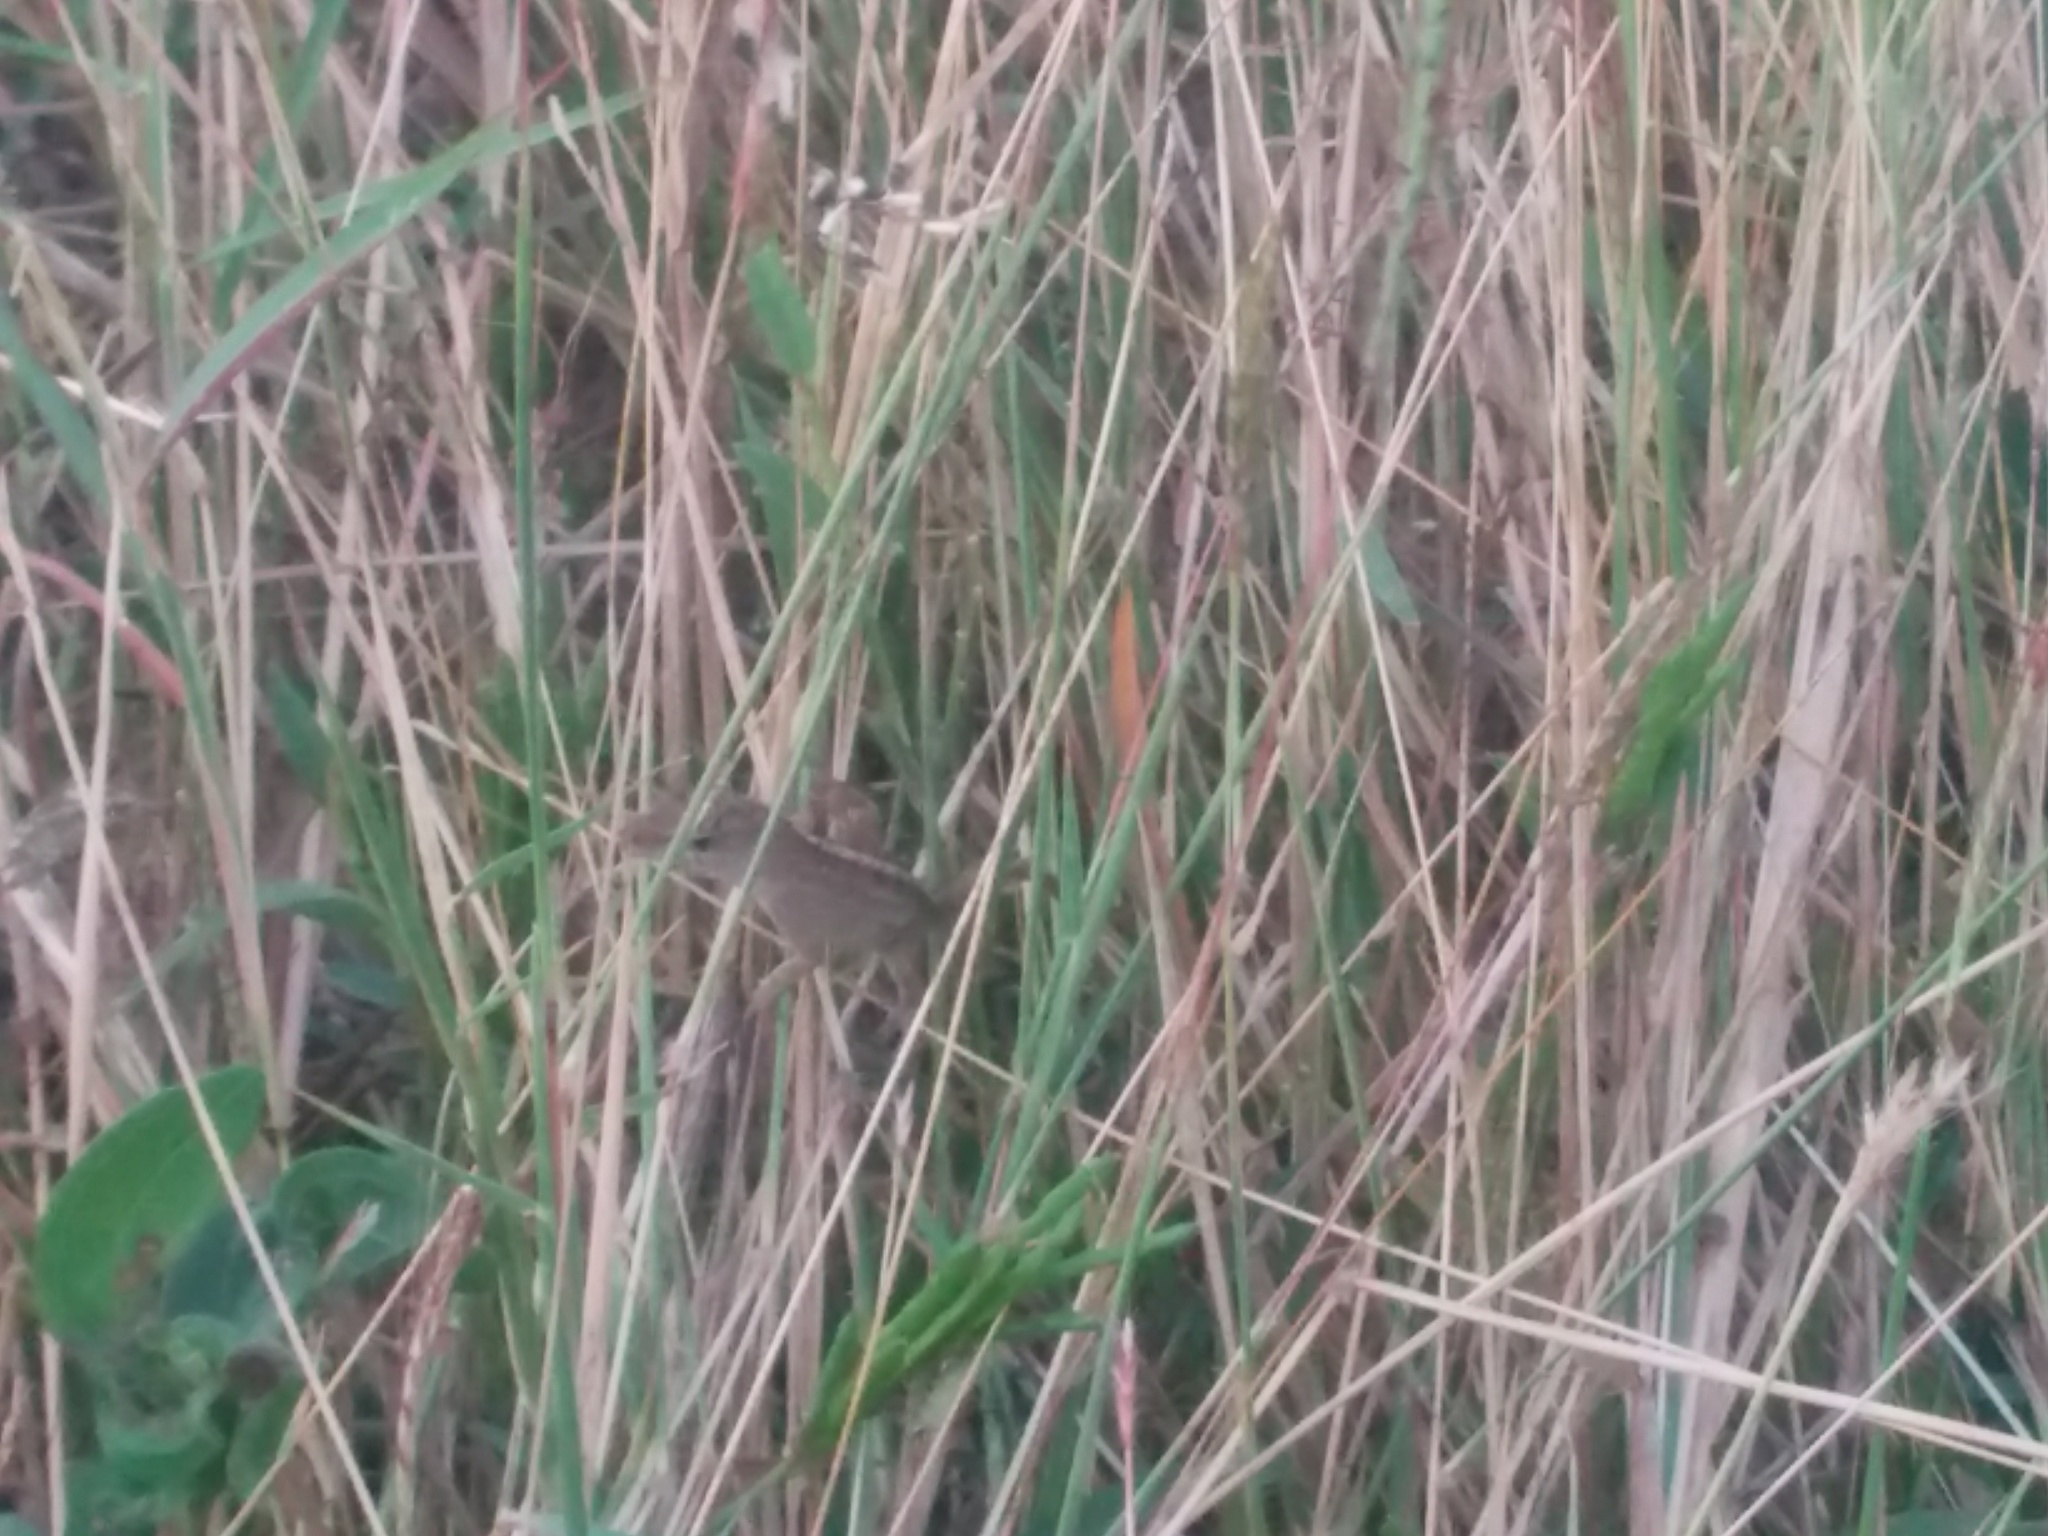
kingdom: Animalia
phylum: Chordata
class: Squamata
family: Dactyloidae
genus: Anolis
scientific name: Anolis sagrei
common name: Brown anole
